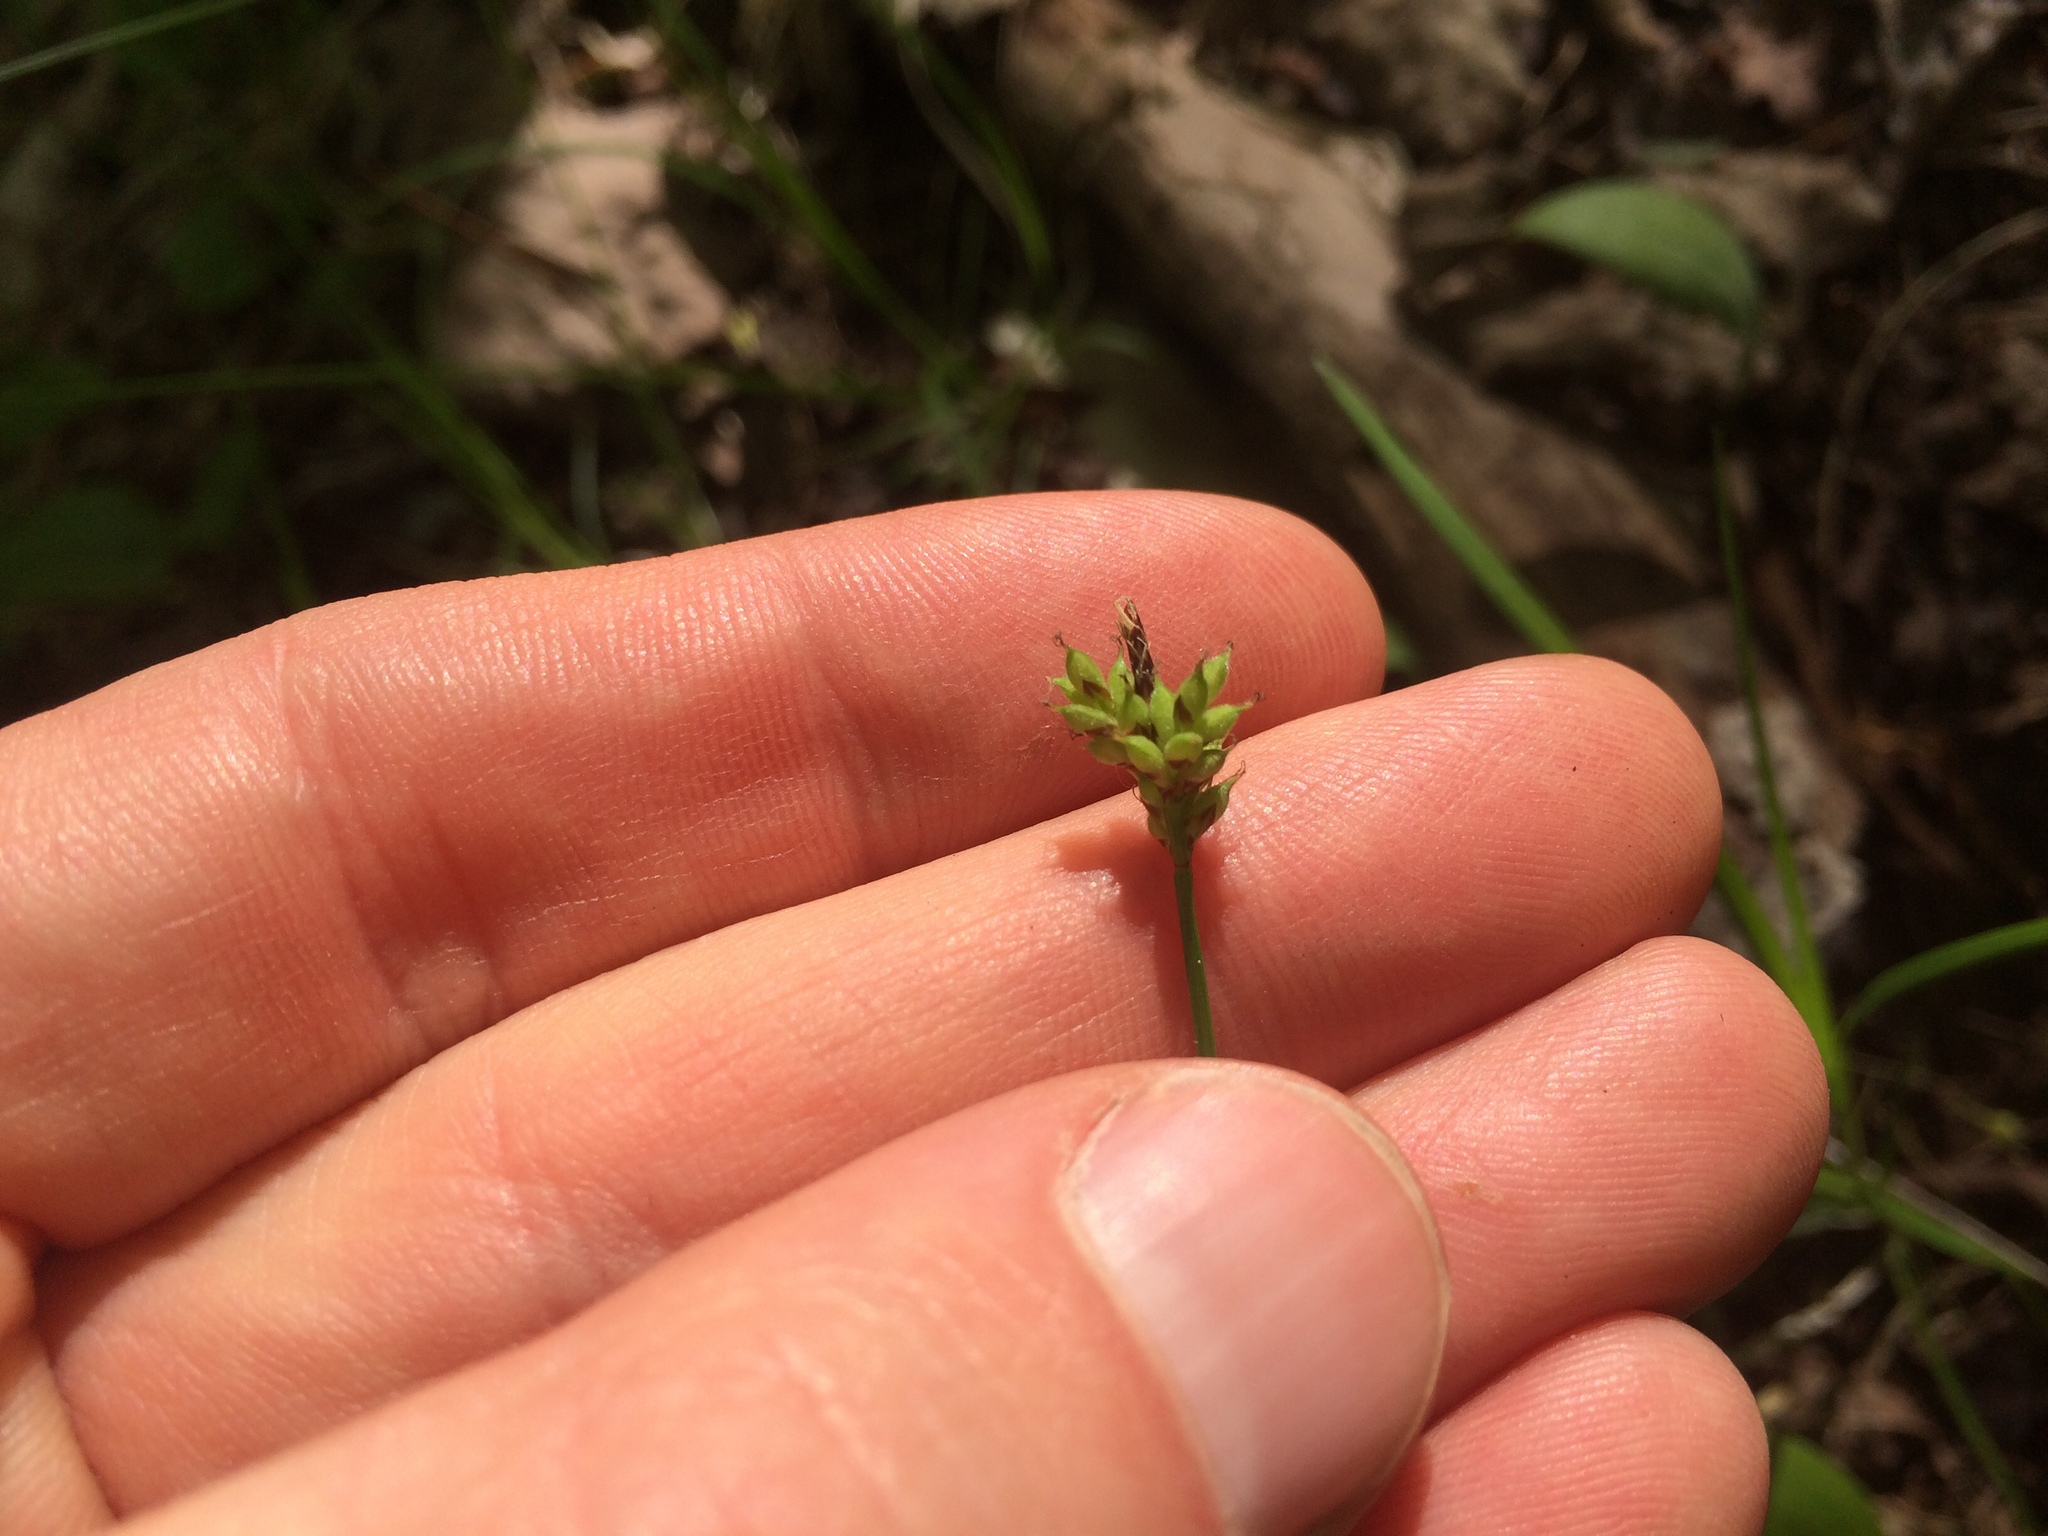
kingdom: Plantae
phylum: Tracheophyta
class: Liliopsida
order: Poales
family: Cyperaceae
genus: Carex
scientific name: Carex peckii
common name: Peck's oak sedge
